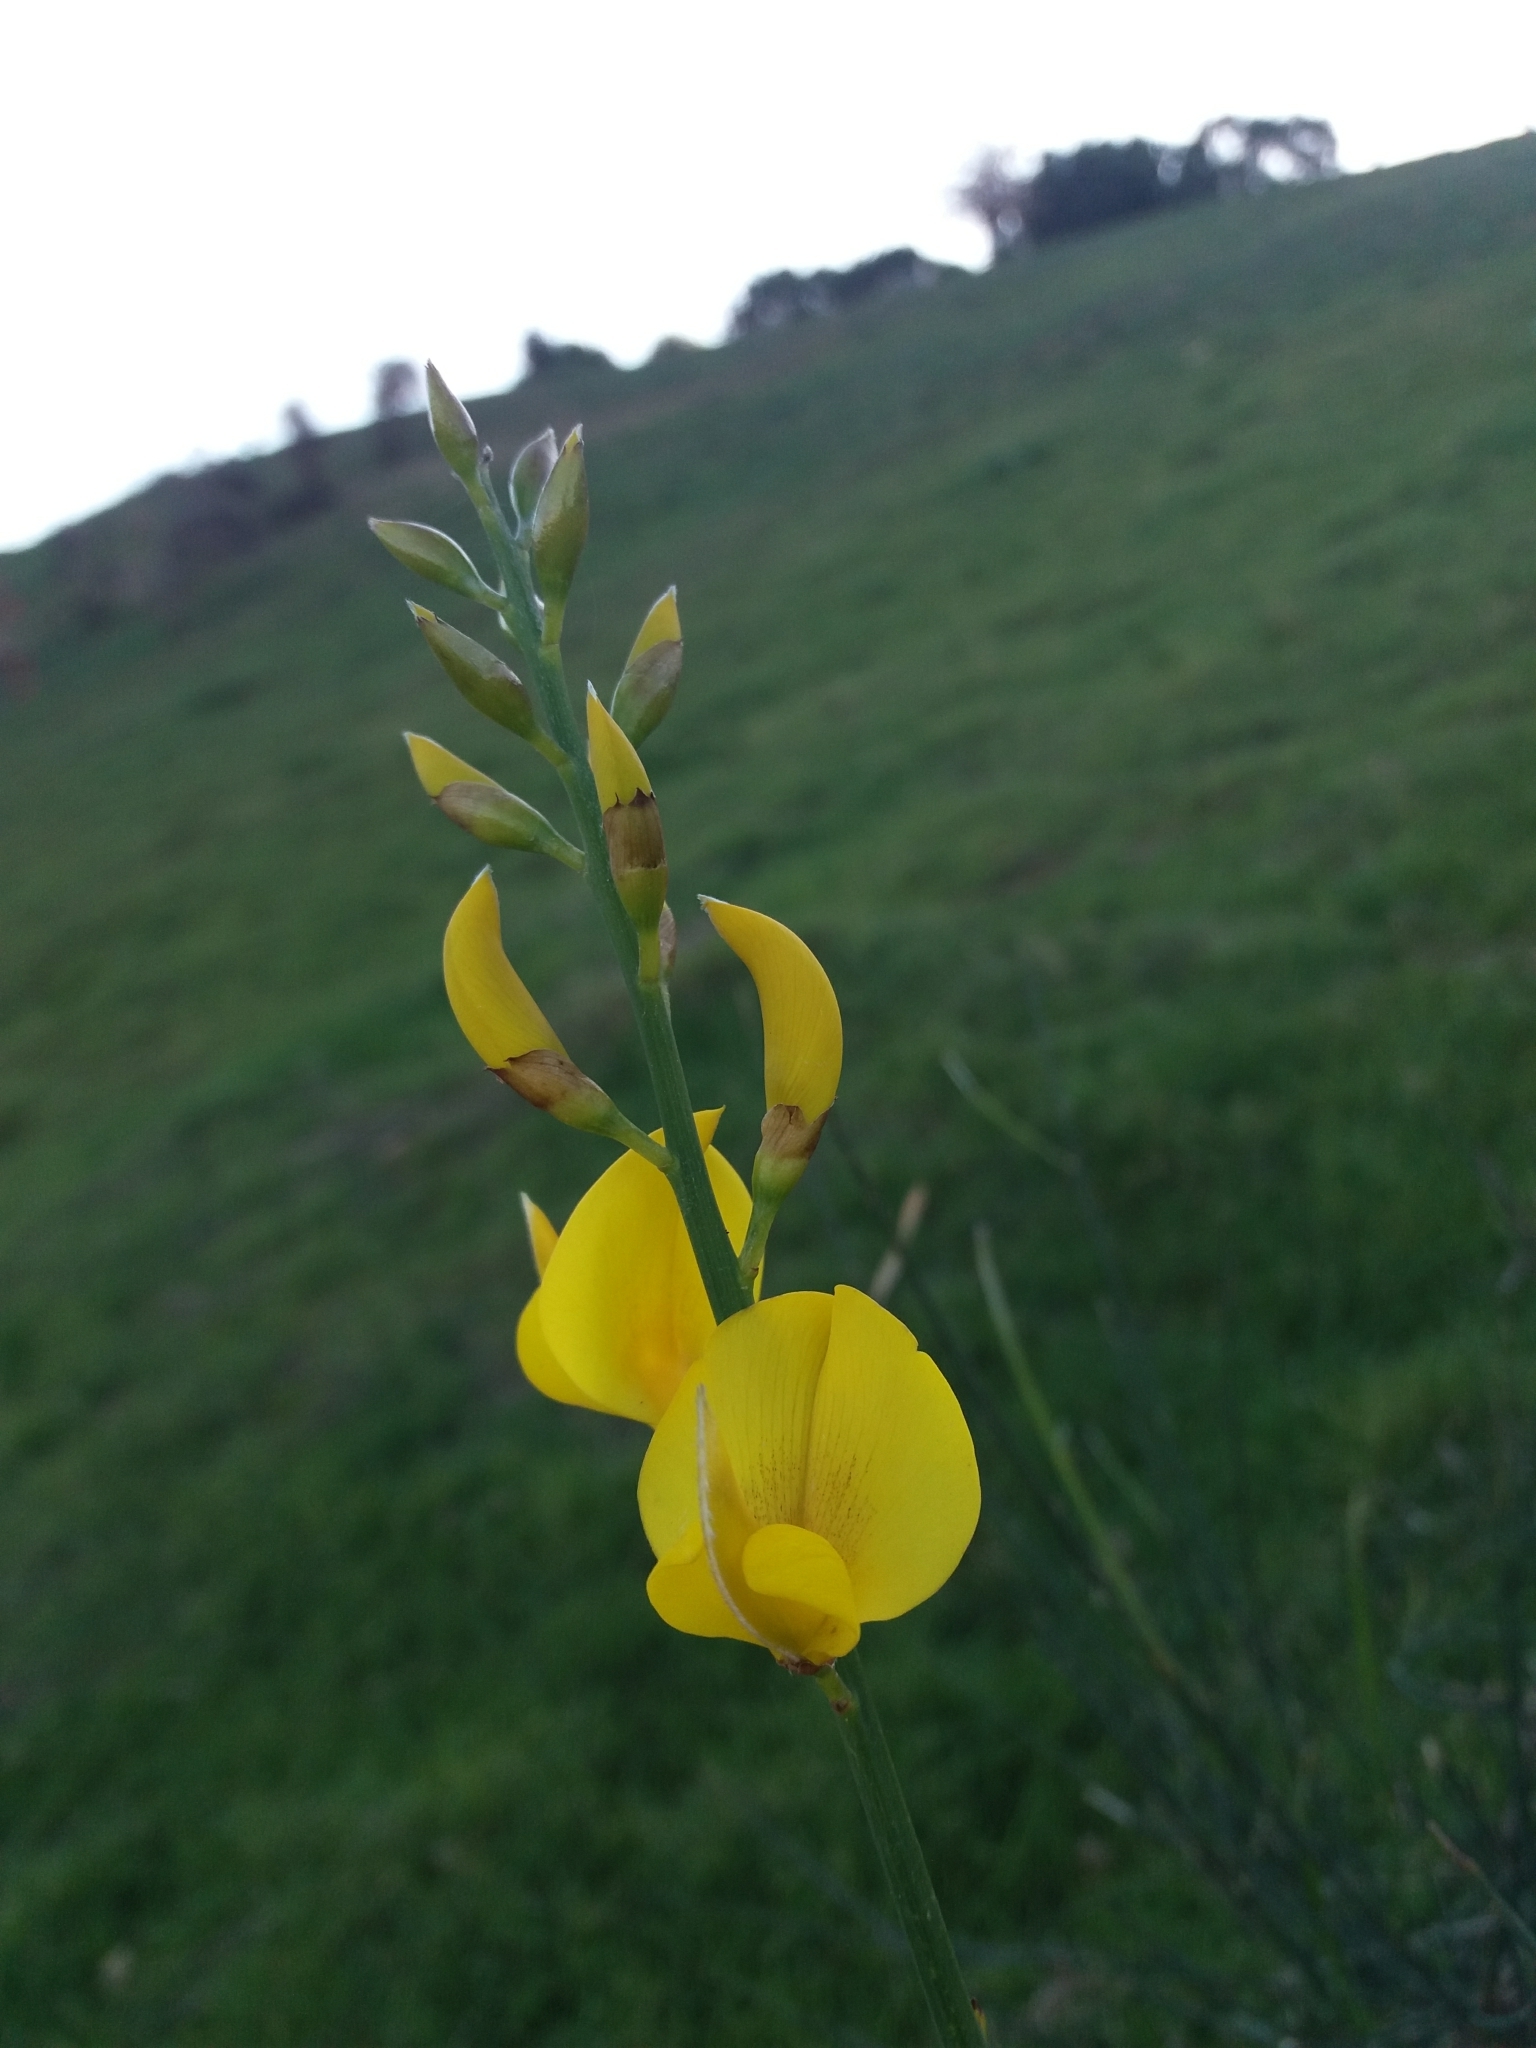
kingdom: Plantae
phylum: Tracheophyta
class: Magnoliopsida
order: Fabales
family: Fabaceae
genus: Spartium
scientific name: Spartium junceum
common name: Spanish broom
